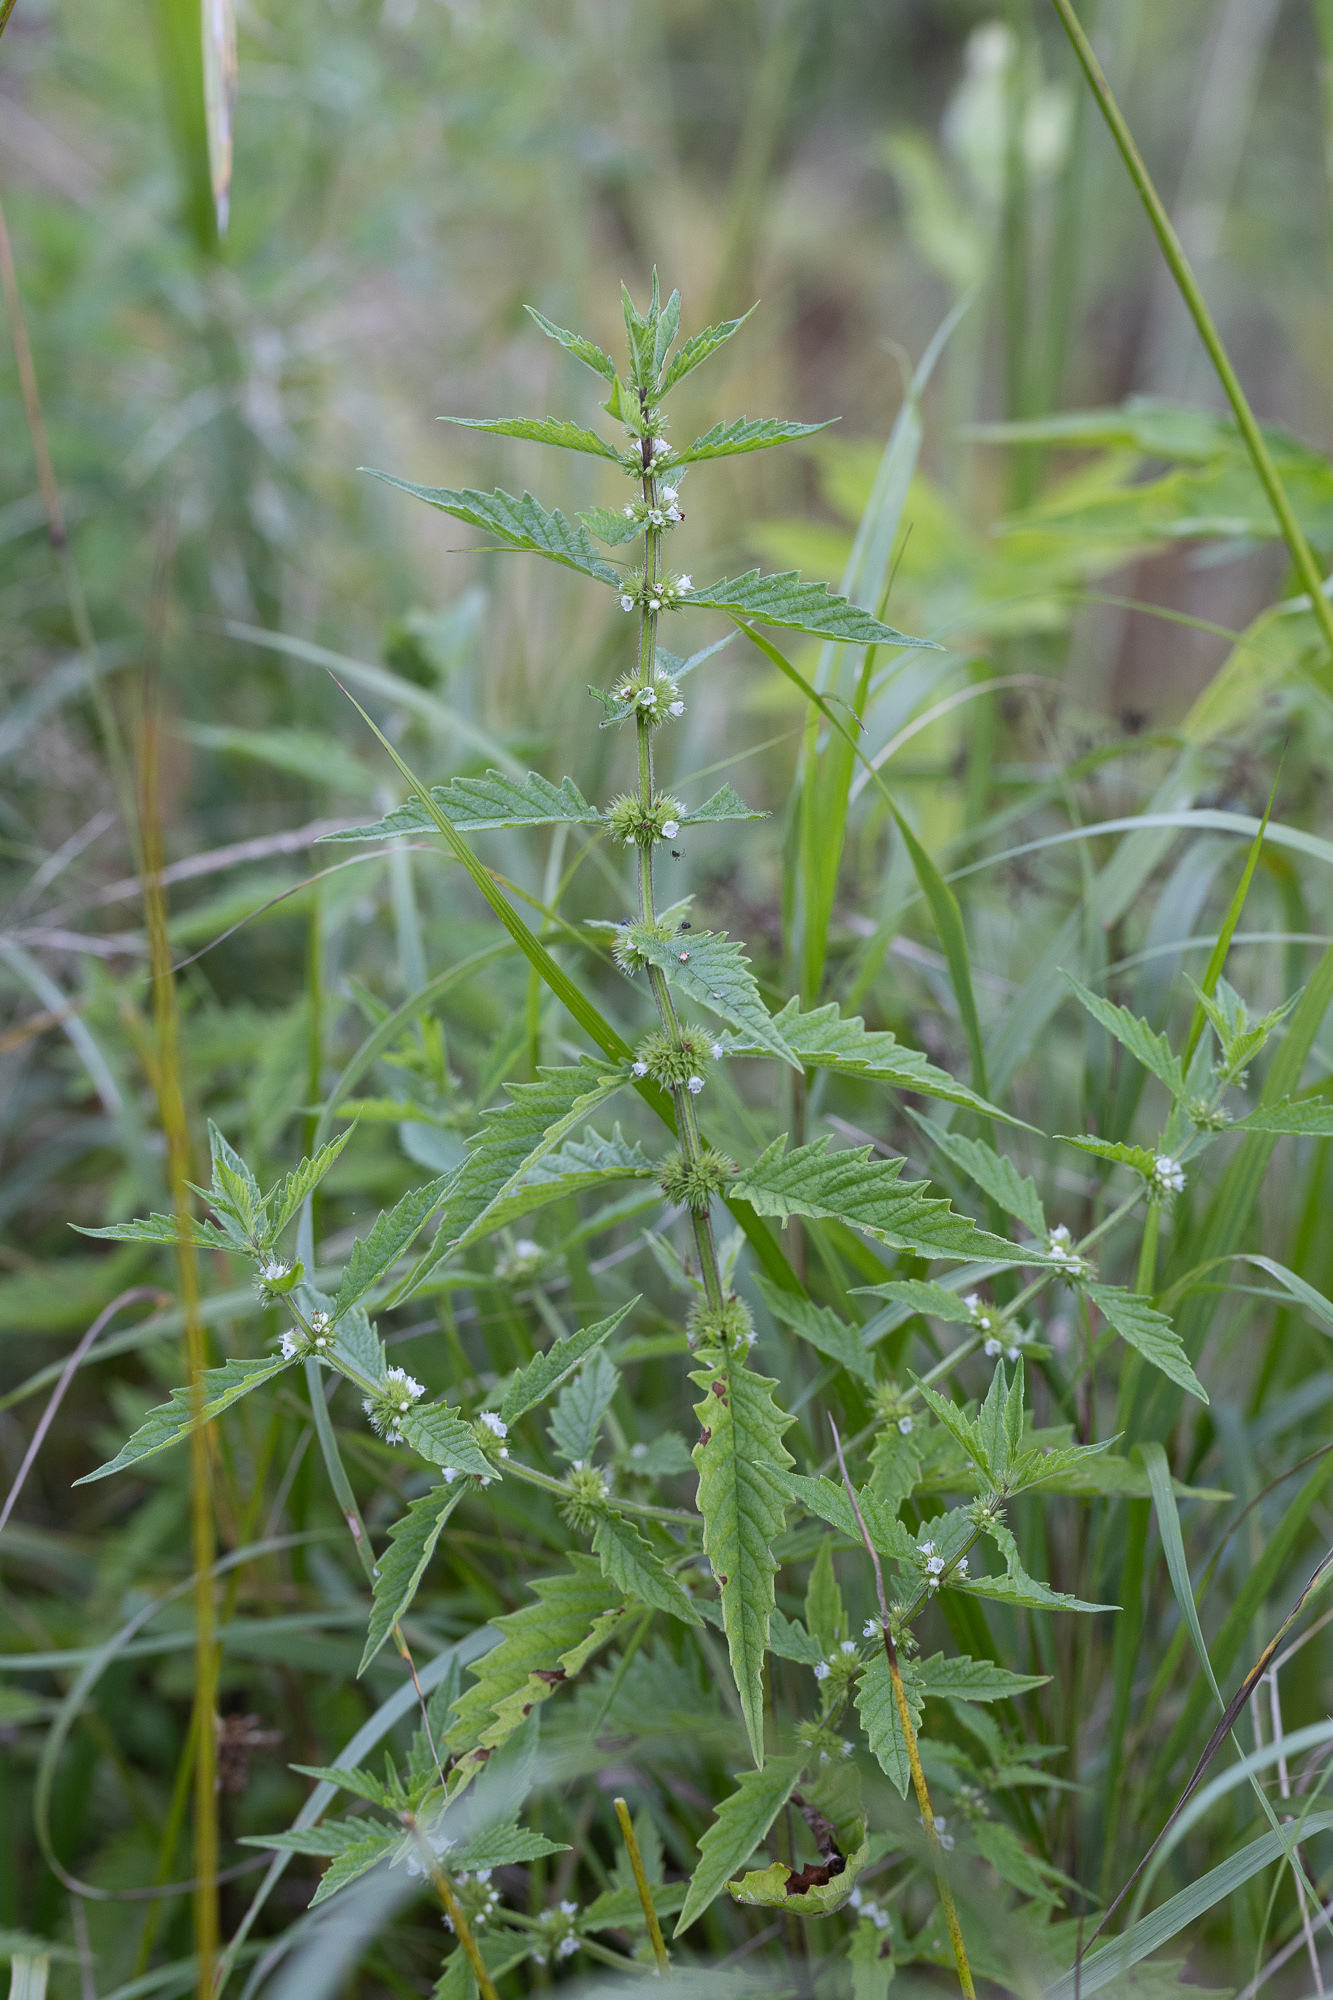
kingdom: Plantae
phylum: Tracheophyta
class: Magnoliopsida
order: Lamiales
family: Lamiaceae
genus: Lycopus
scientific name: Lycopus europaeus
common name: European bugleweed
